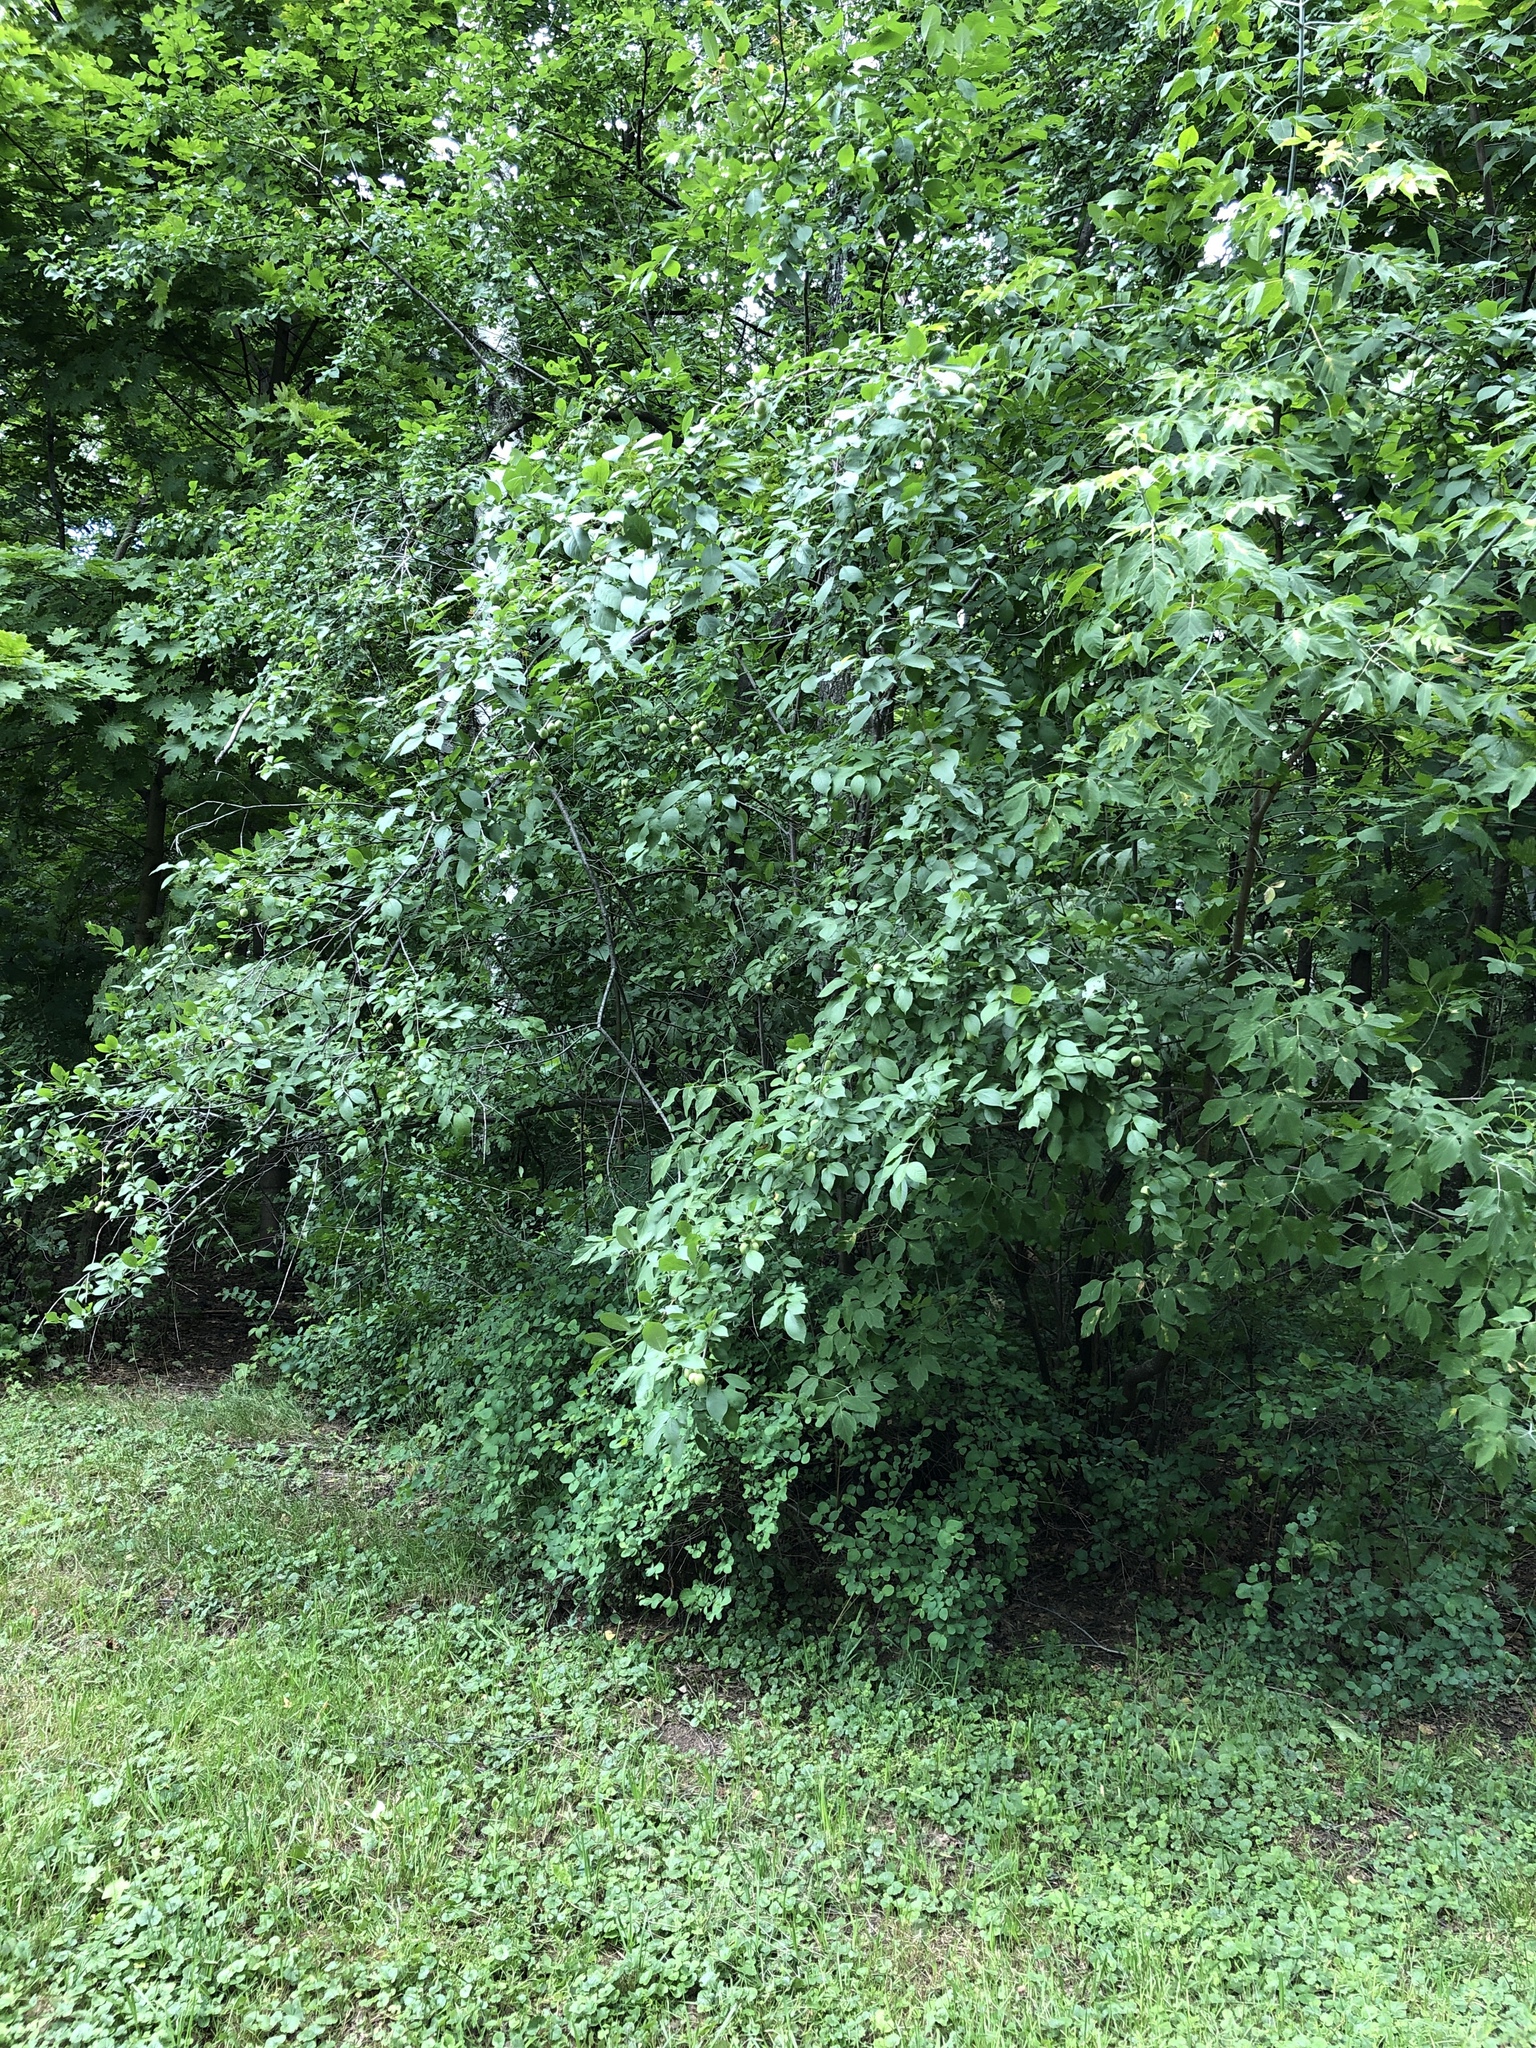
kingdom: Plantae
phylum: Tracheophyta
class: Magnoliopsida
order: Rosales
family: Rosaceae
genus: Prunus
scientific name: Prunus domestica
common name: Wild plum
